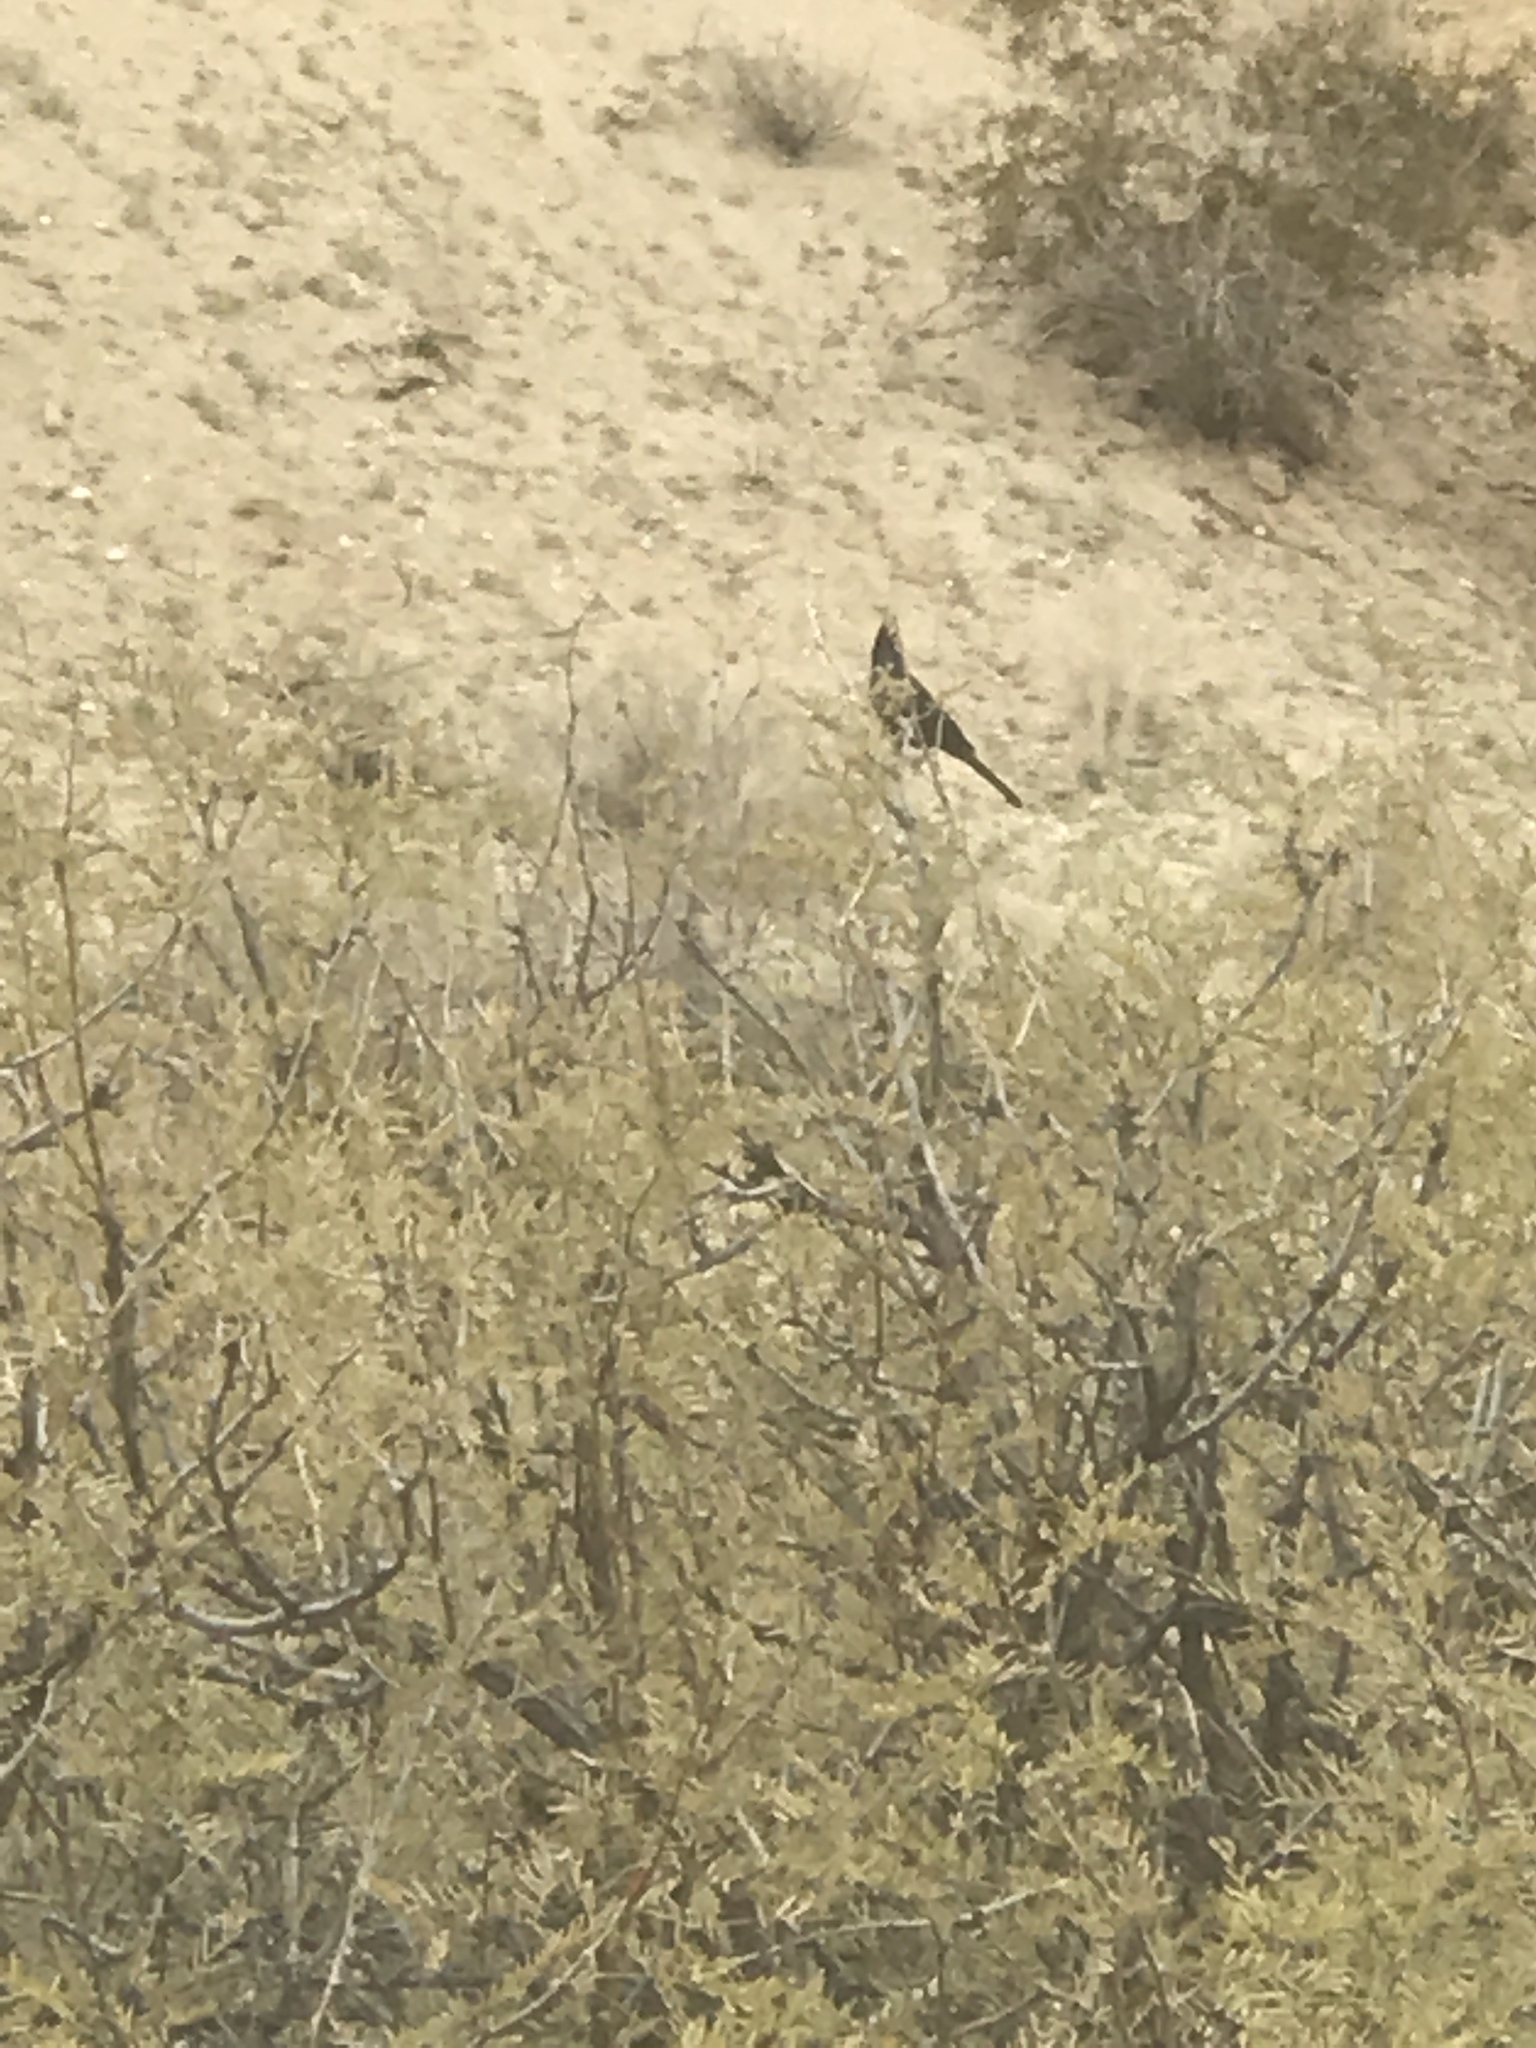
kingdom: Animalia
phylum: Chordata
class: Aves
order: Passeriformes
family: Ptilogonatidae
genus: Phainopepla
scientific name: Phainopepla nitens
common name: Phainopepla
